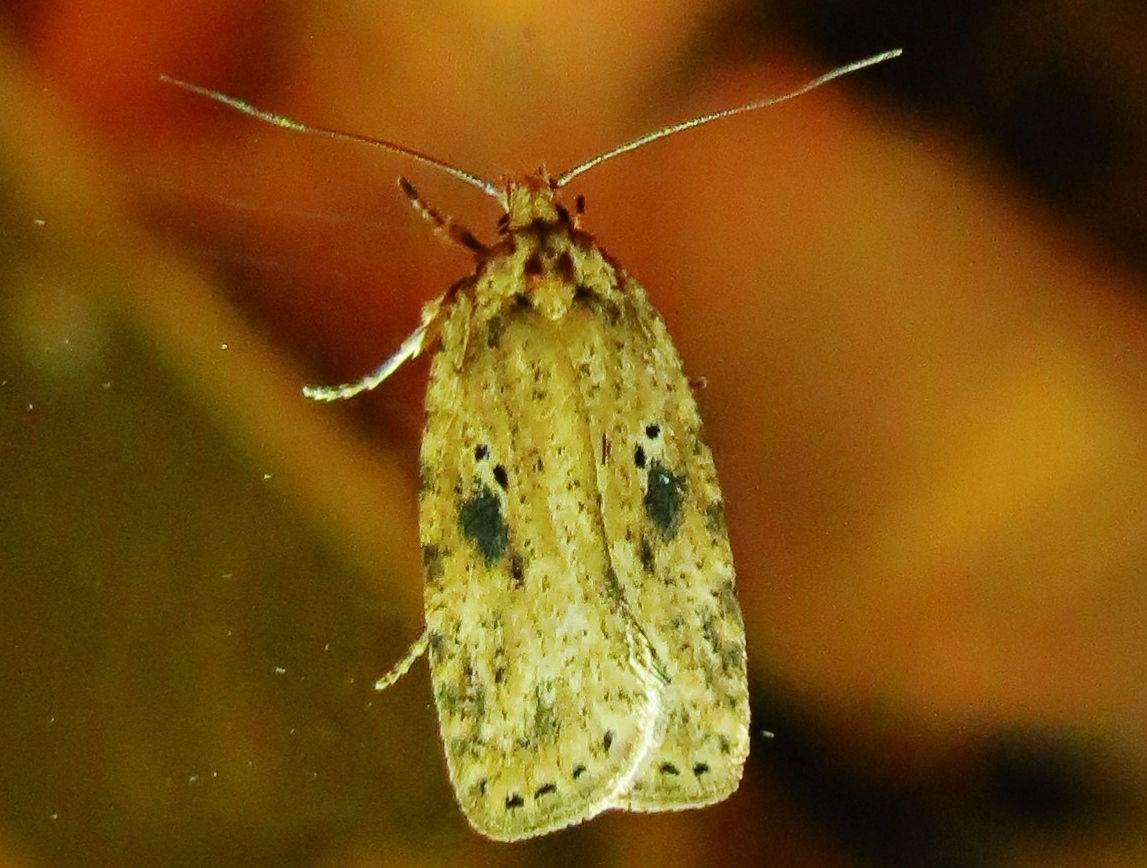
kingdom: Animalia
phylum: Arthropoda
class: Insecta
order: Lepidoptera
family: Depressariidae
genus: Agonopterix
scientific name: Agonopterix arenella
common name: Brindled flat-body
